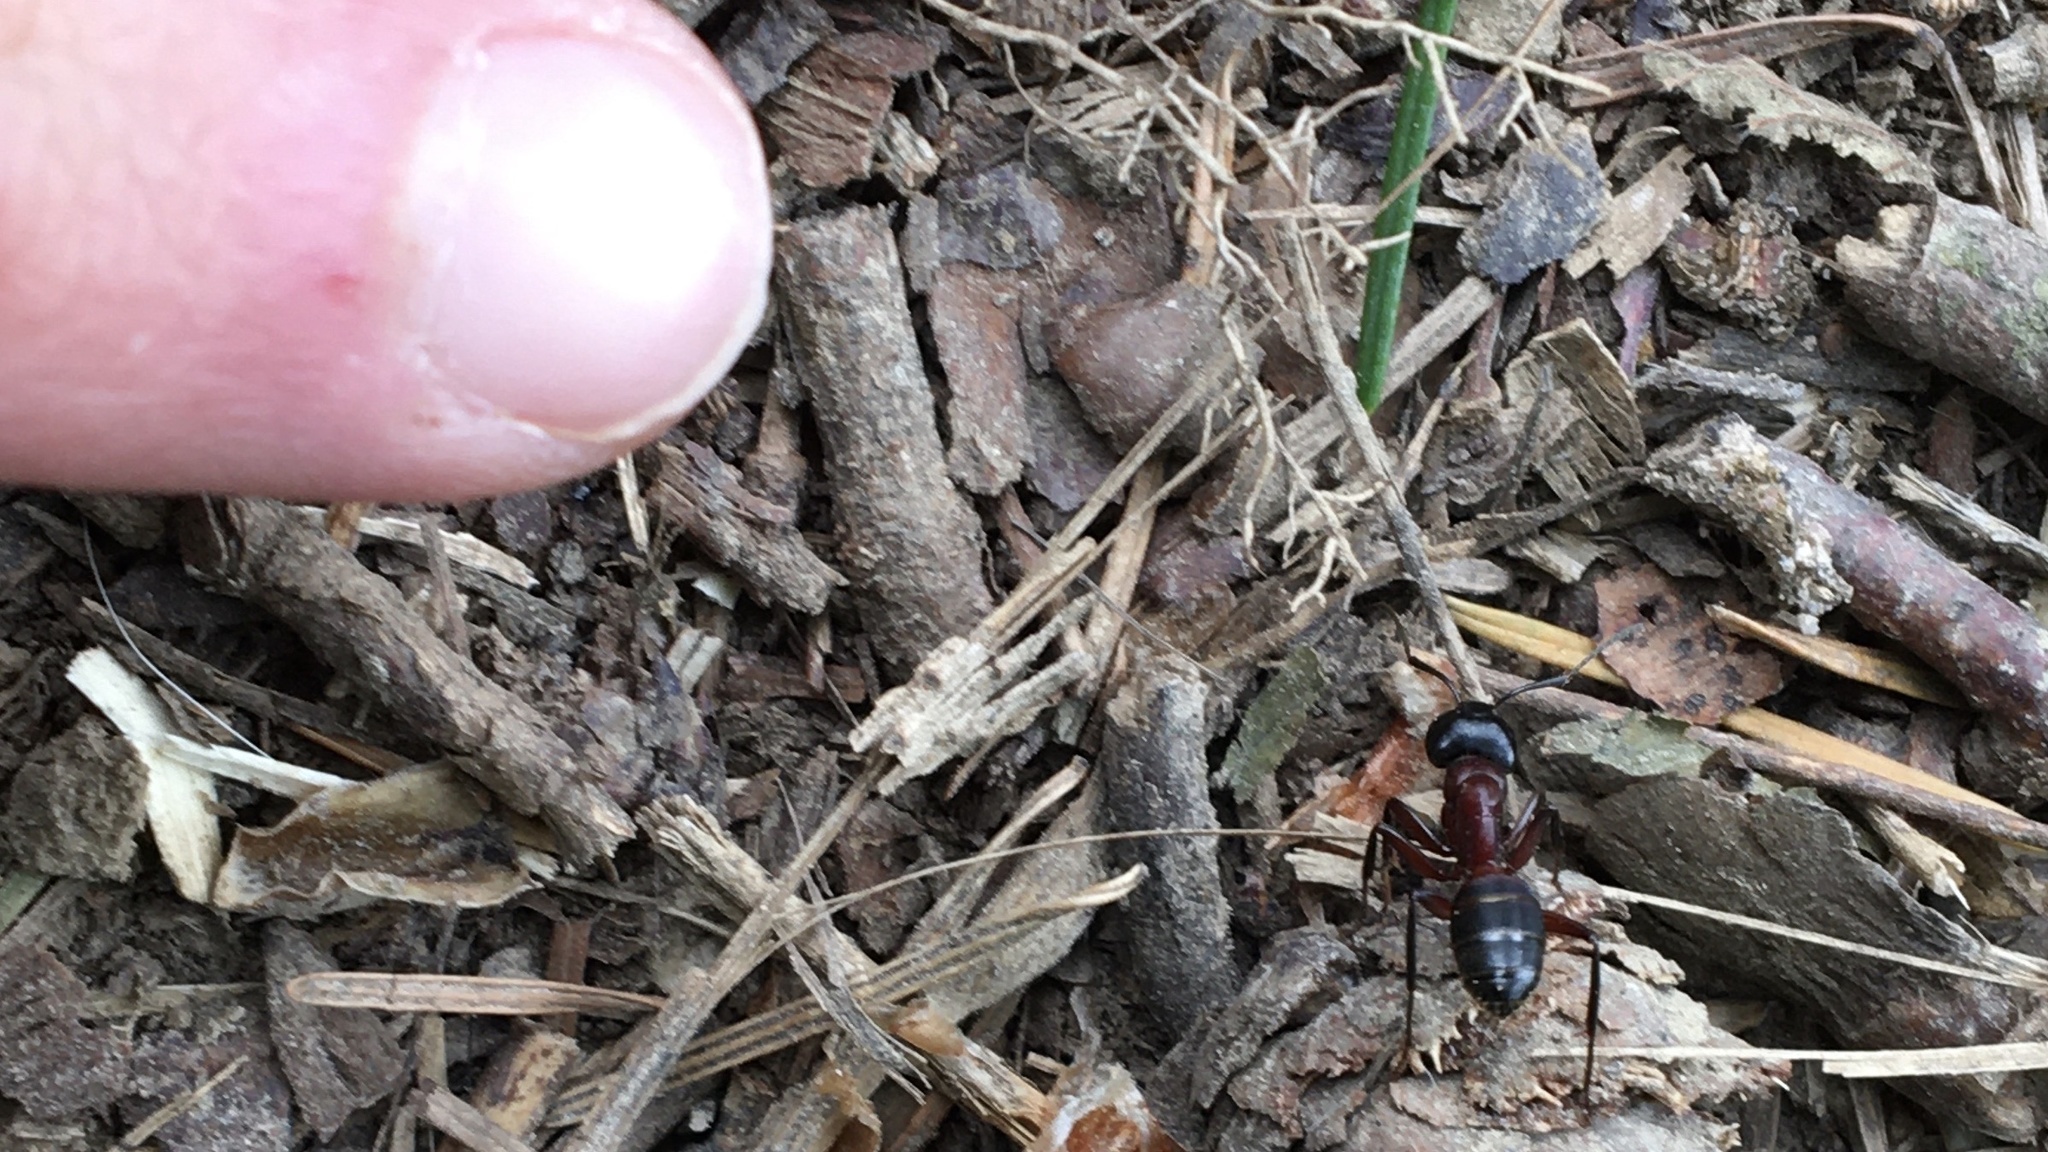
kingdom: Animalia
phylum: Arthropoda
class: Insecta
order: Hymenoptera
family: Formicidae
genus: Camponotus
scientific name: Camponotus ligniperdus
